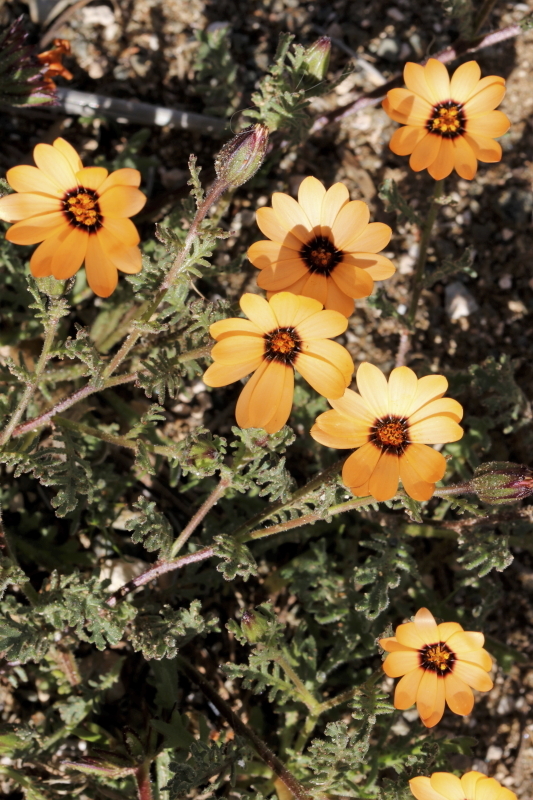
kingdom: Plantae
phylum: Tracheophyta
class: Magnoliopsida
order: Asterales
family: Asteraceae
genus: Dimorphotheca
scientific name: Dimorphotheca pinnata
